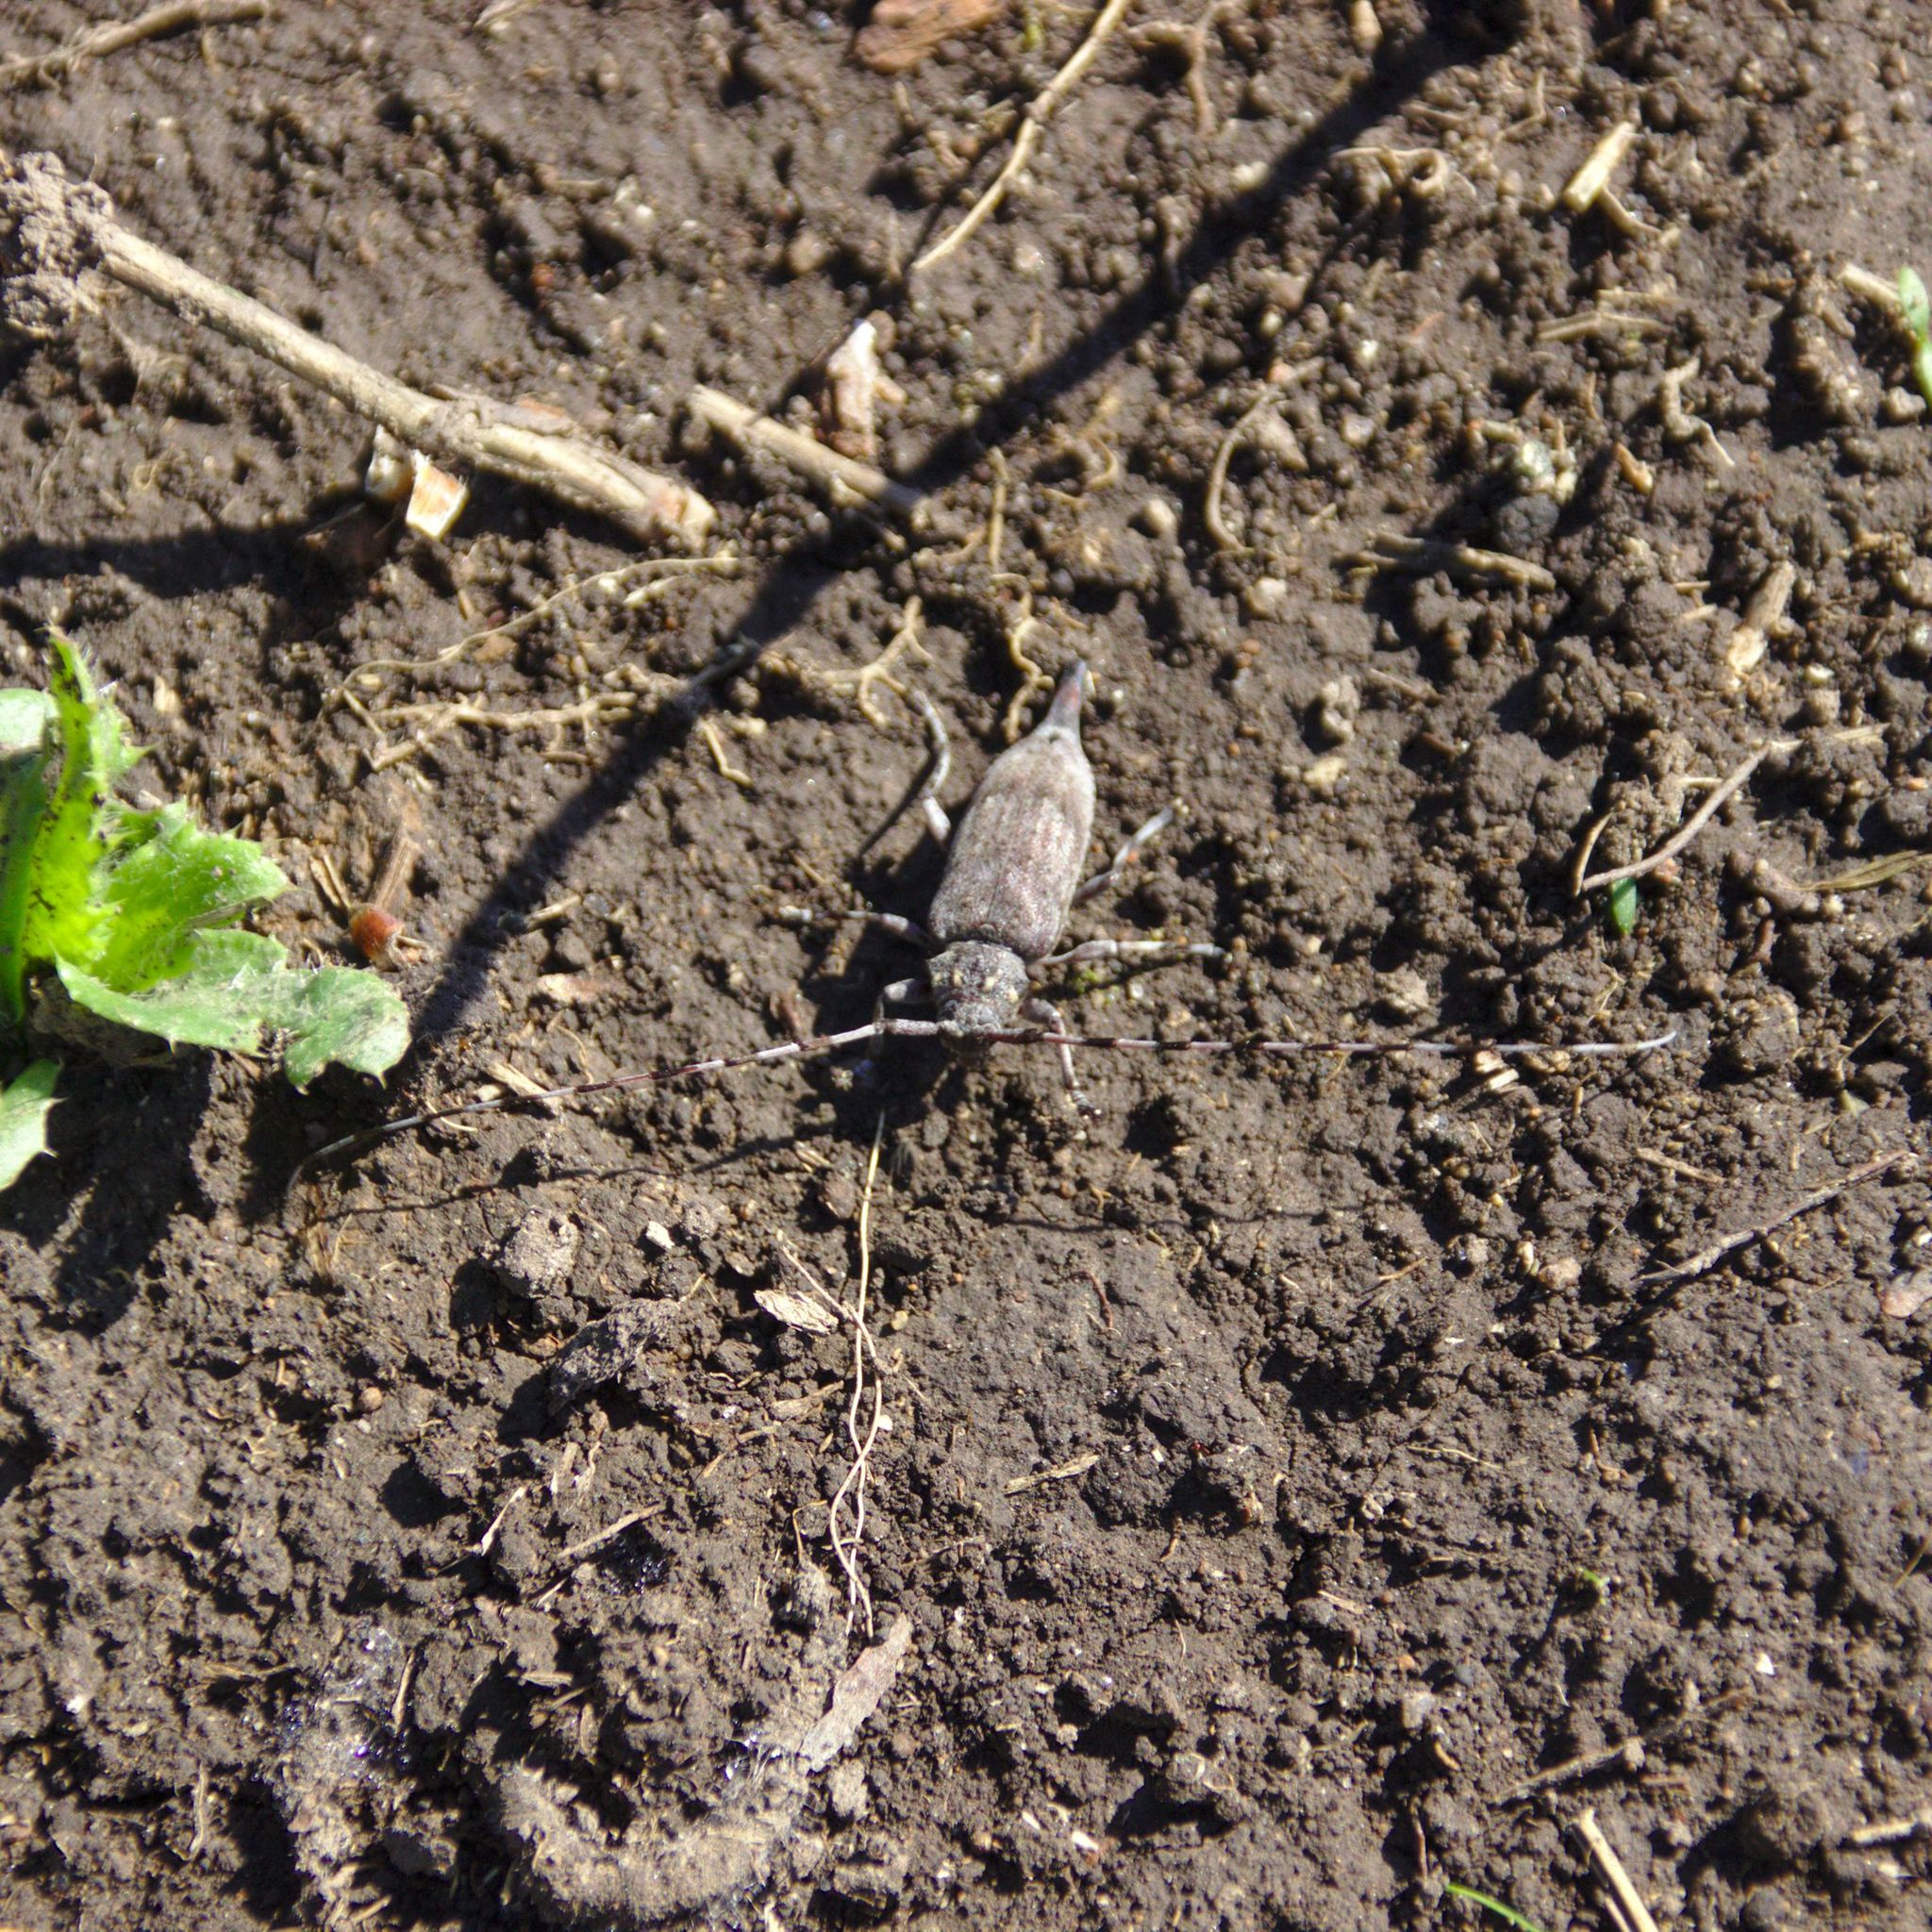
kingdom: Animalia
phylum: Arthropoda
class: Insecta
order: Coleoptera
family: Cerambycidae
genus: Acanthocinus
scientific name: Acanthocinus aedilis
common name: Timberman beetle
